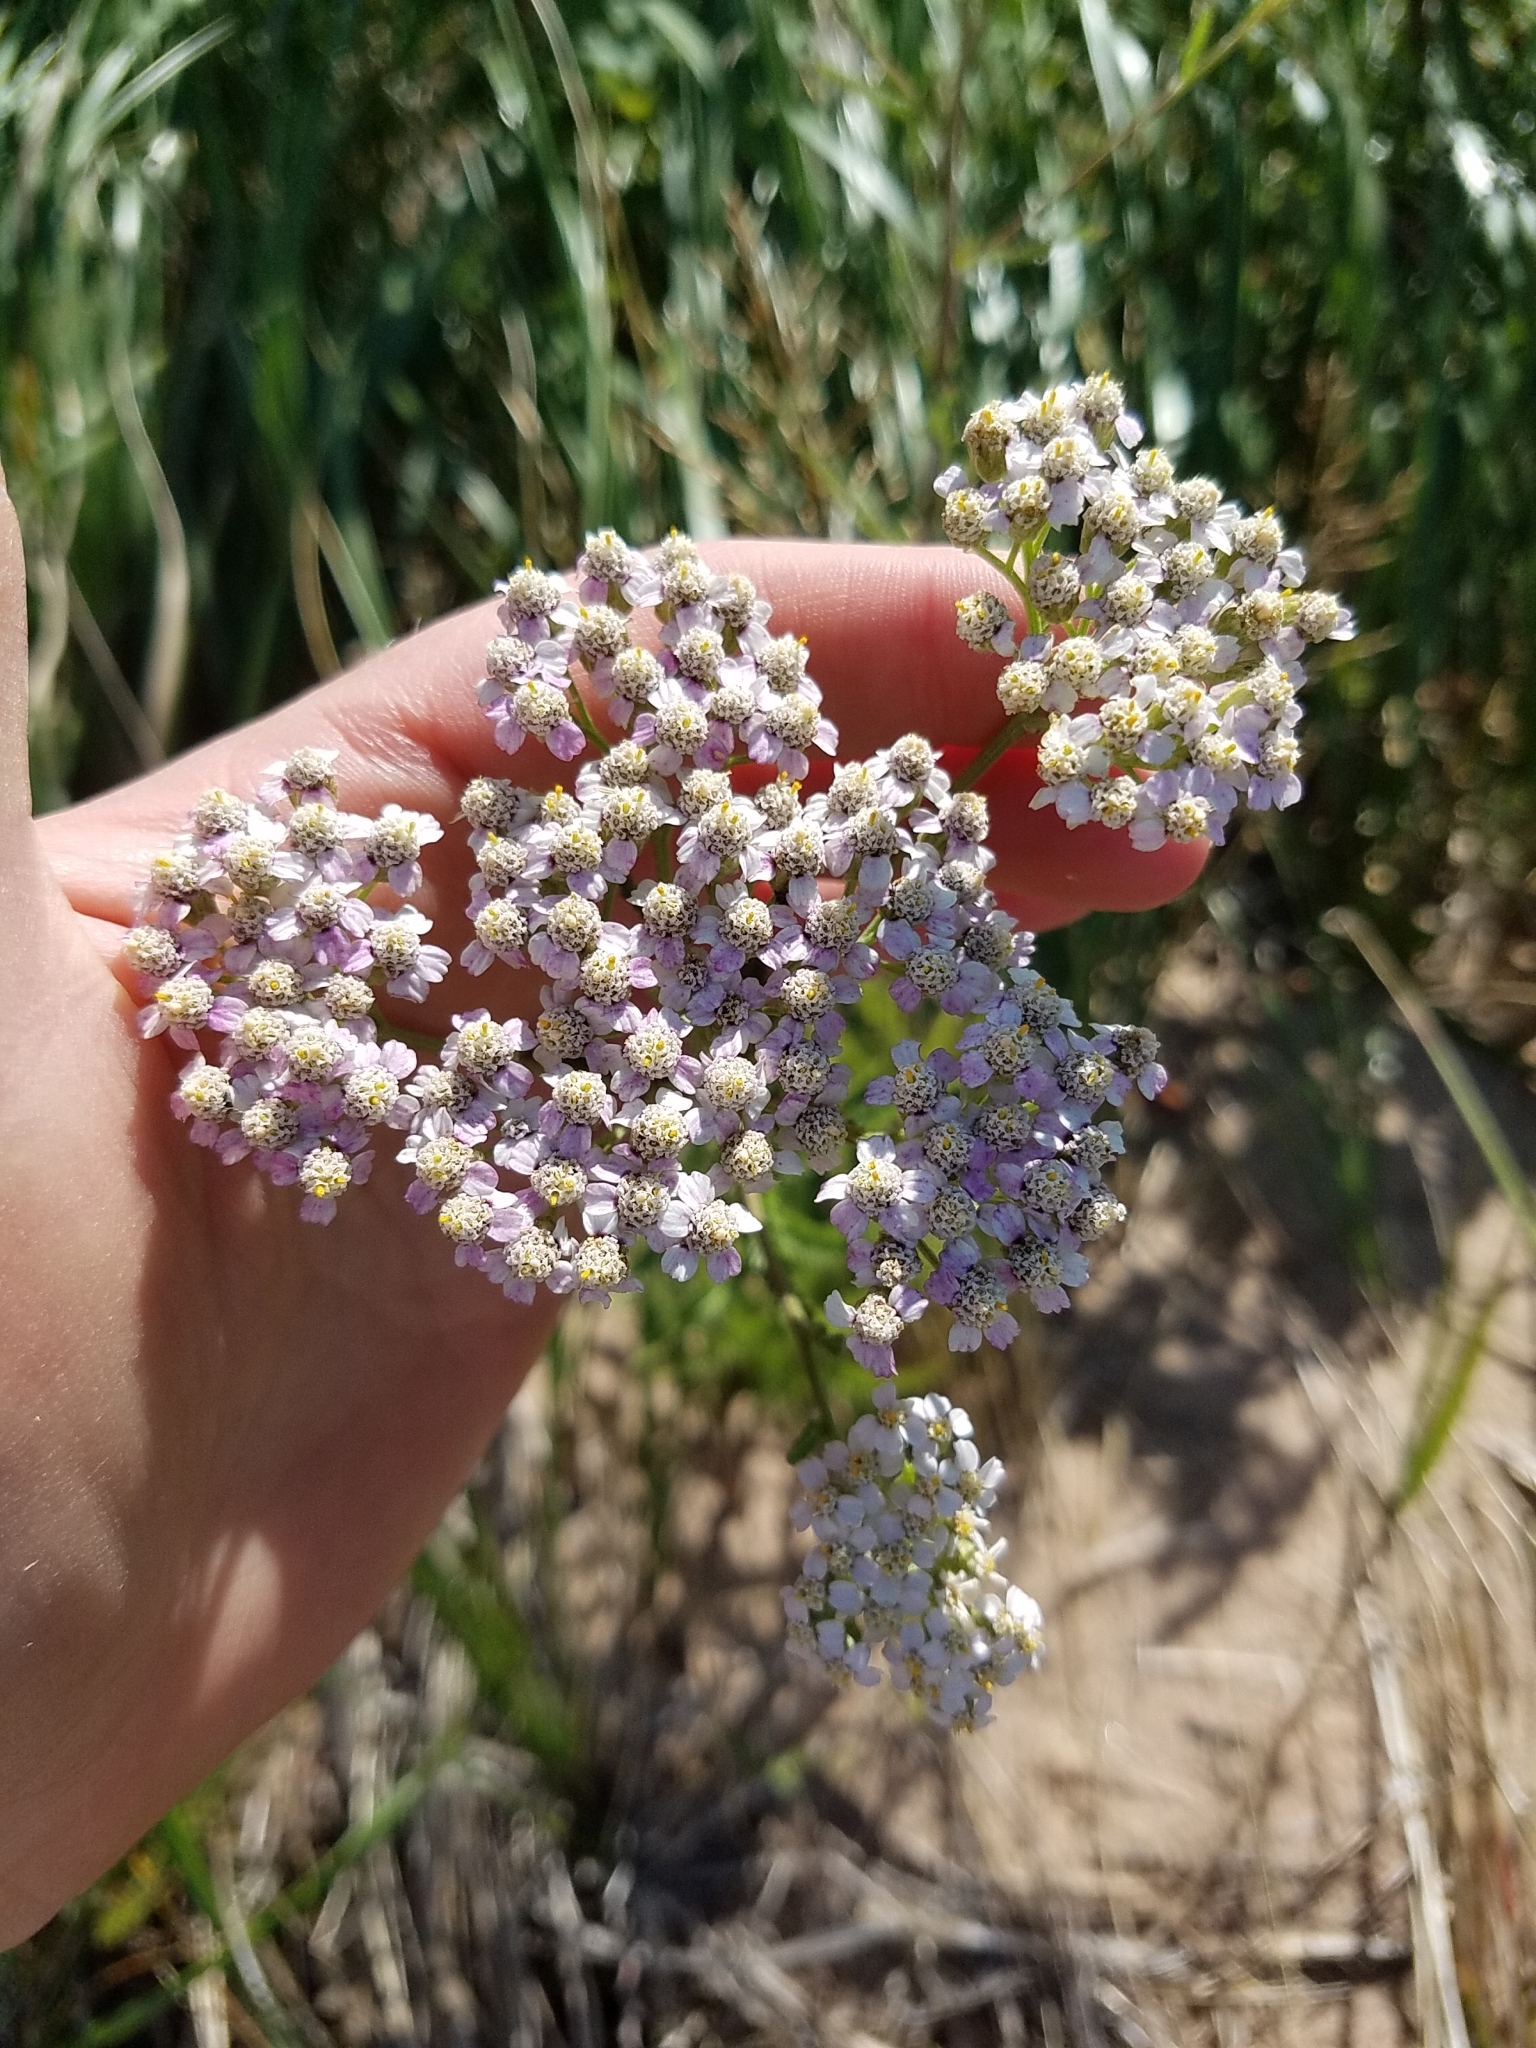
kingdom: Plantae
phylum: Tracheophyta
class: Magnoliopsida
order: Asterales
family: Asteraceae
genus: Achillea
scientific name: Achillea millefolium
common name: Yarrow
